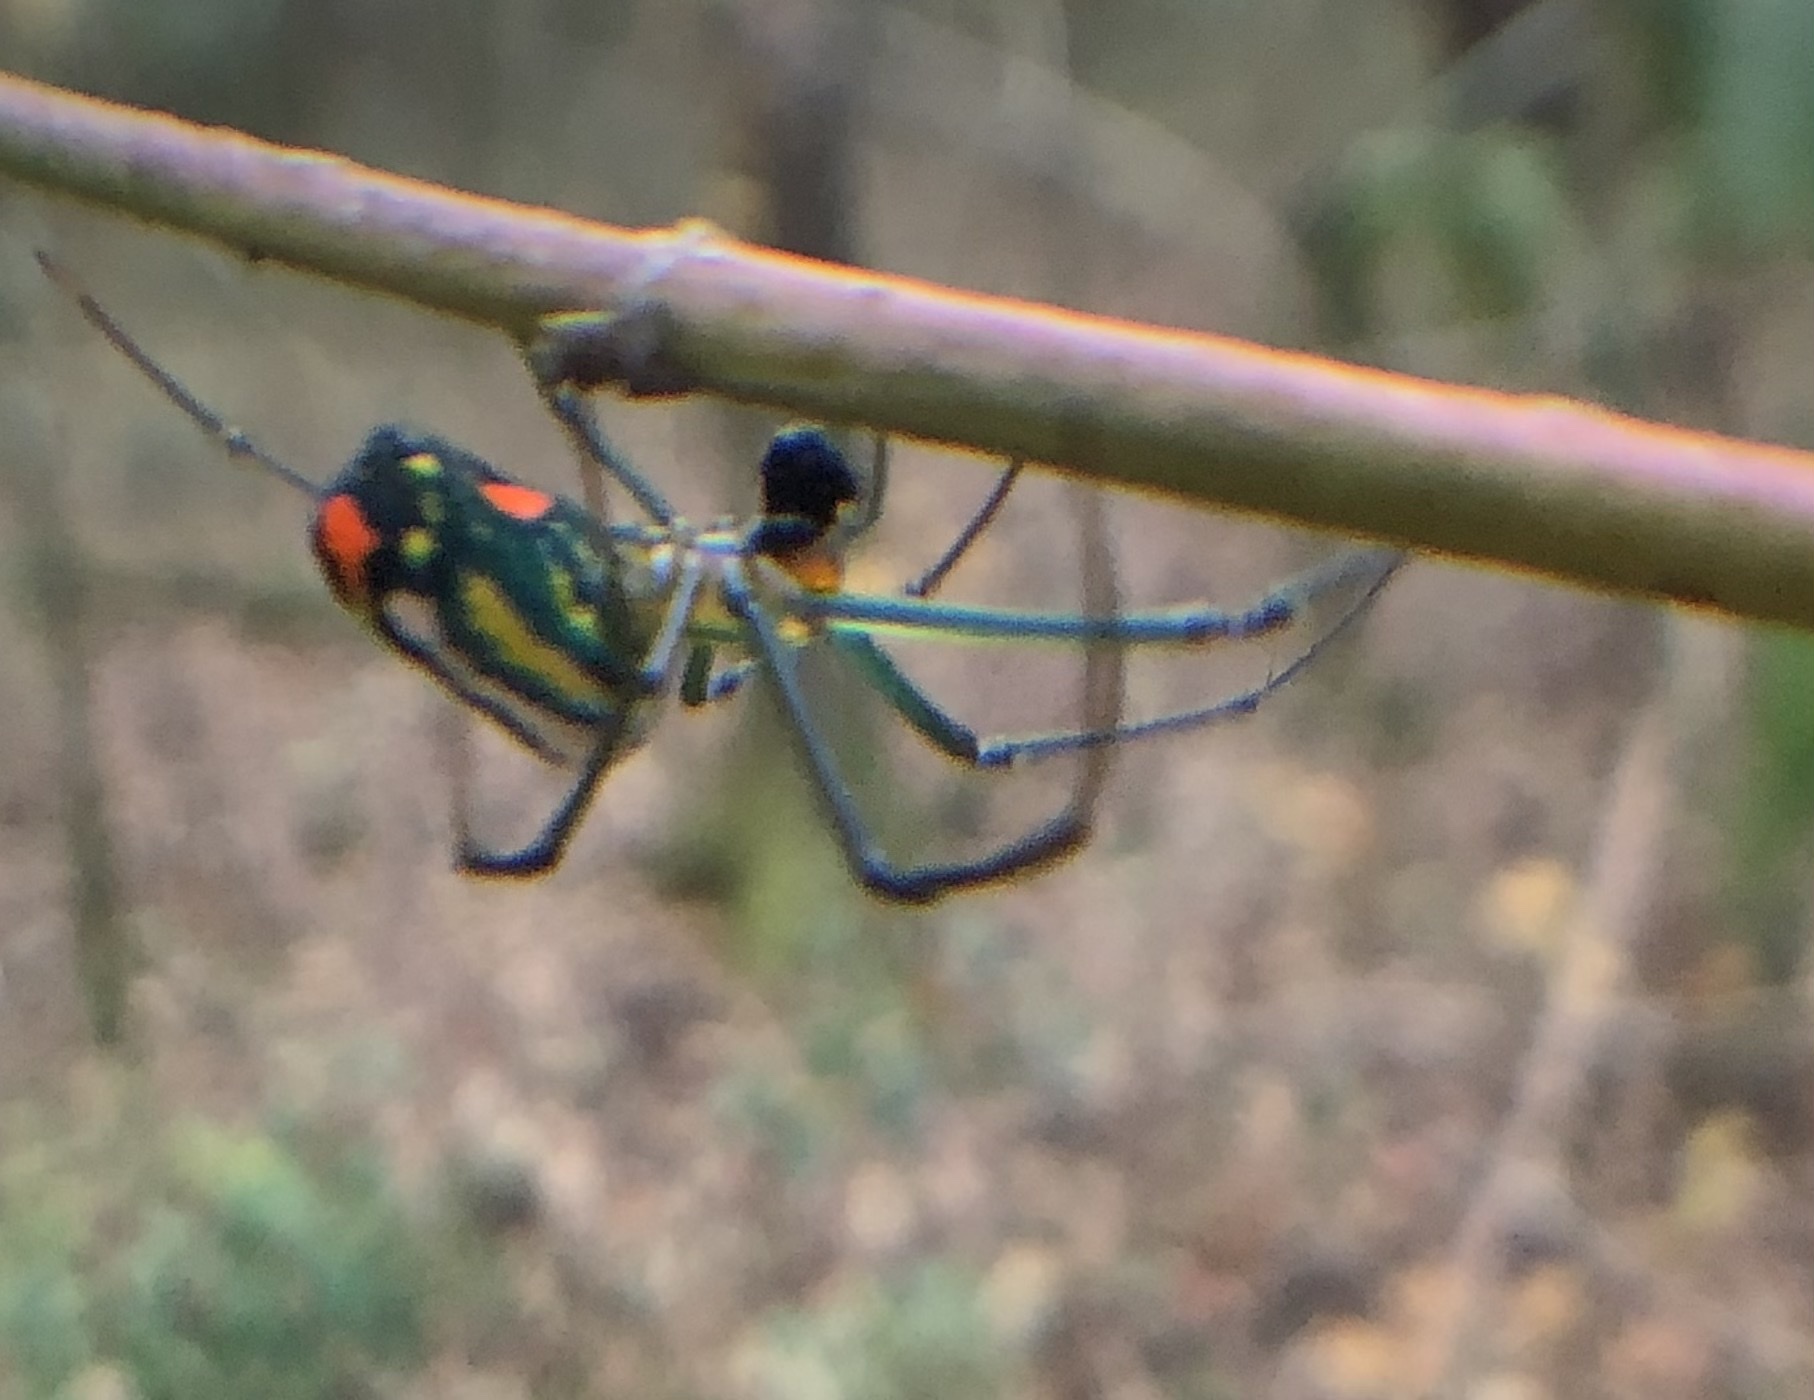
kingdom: Animalia
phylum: Arthropoda
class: Arachnida
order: Araneae
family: Tetragnathidae
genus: Leucauge
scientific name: Leucauge argyrobapta
